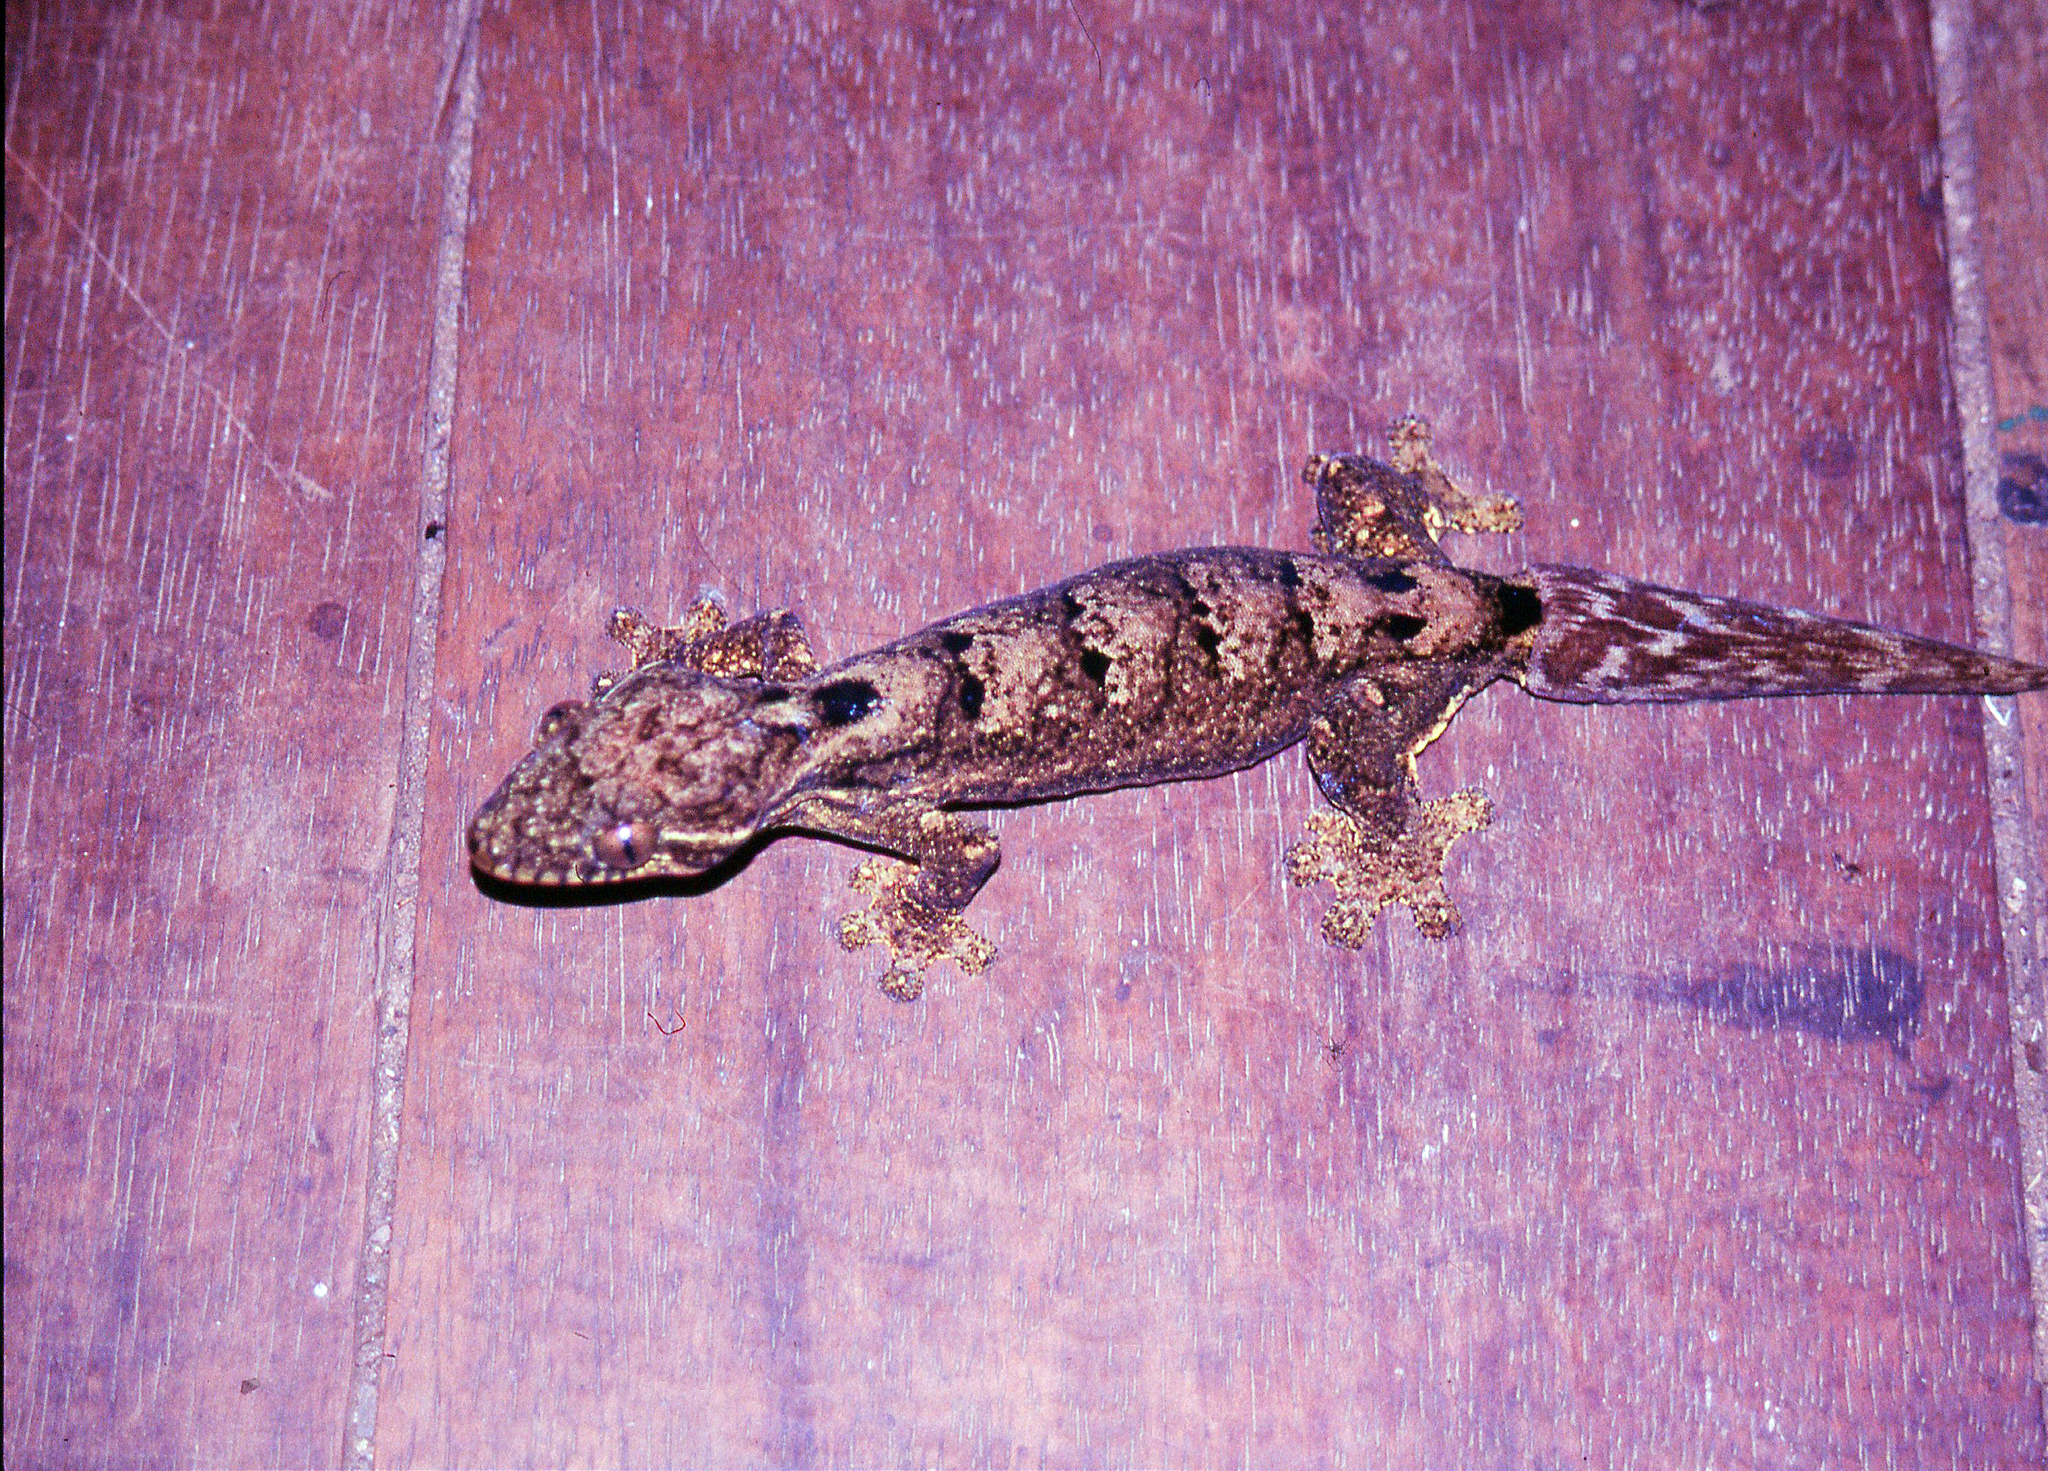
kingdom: Animalia
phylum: Chordata
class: Squamata
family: Phyllodactylidae
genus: Thecadactylus
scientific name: Thecadactylus solimoensis
